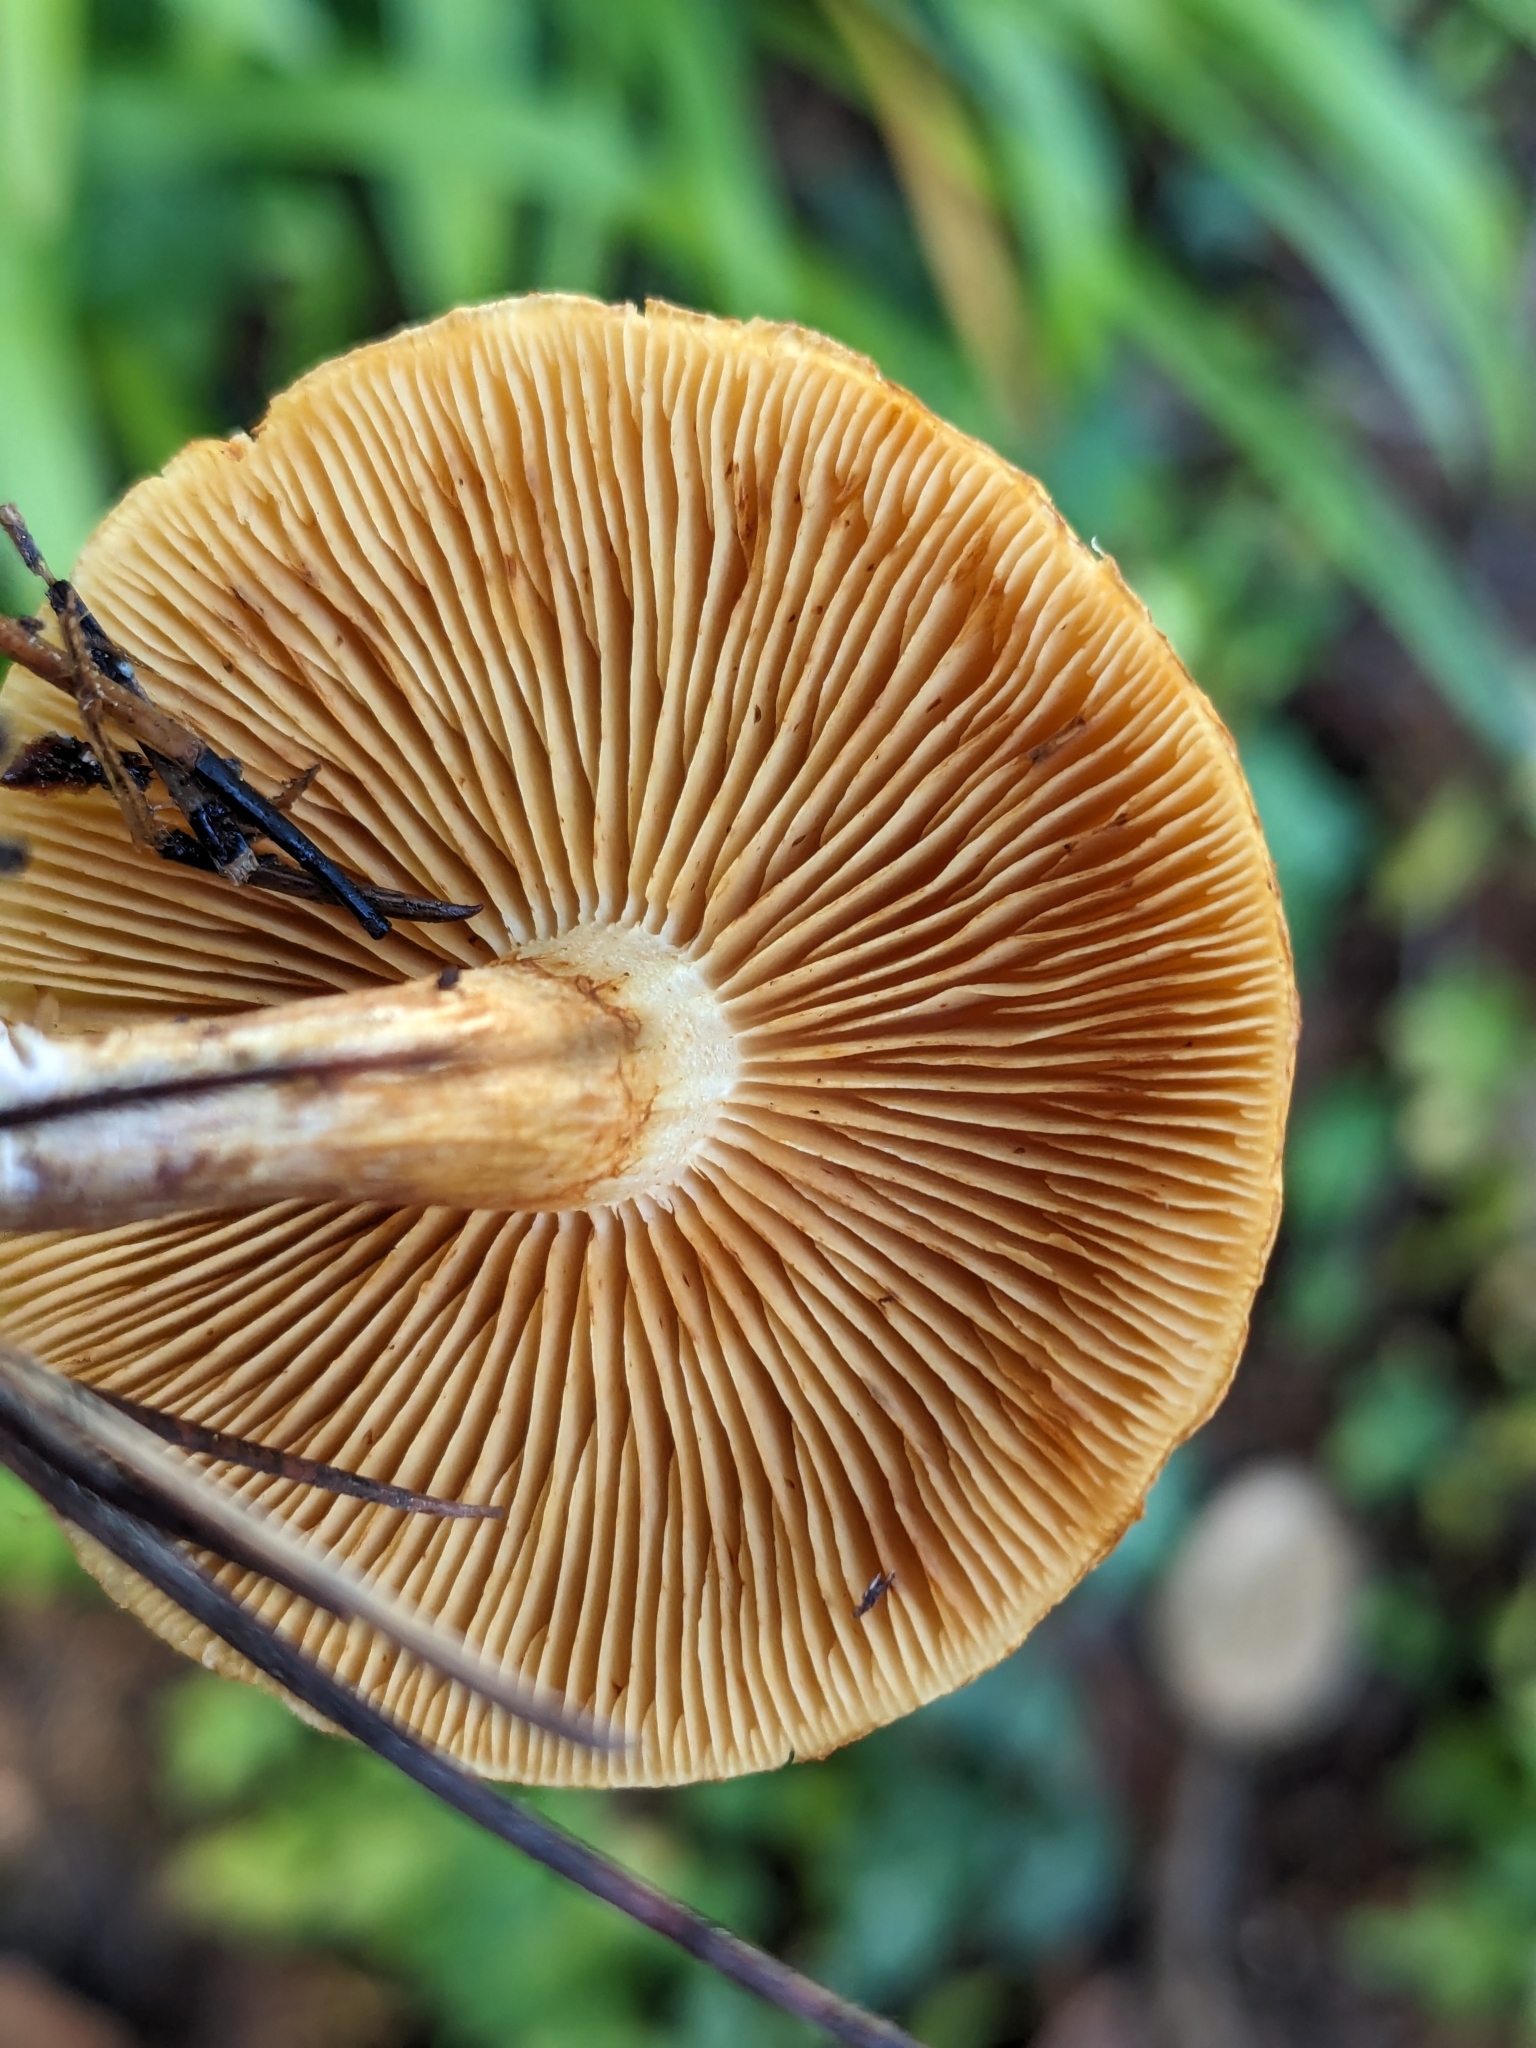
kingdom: Fungi
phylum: Basidiomycota
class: Agaricomycetes
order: Agaricales
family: Hymenogastraceae
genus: Gymnopilus
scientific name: Gymnopilus aurantiophyllus
